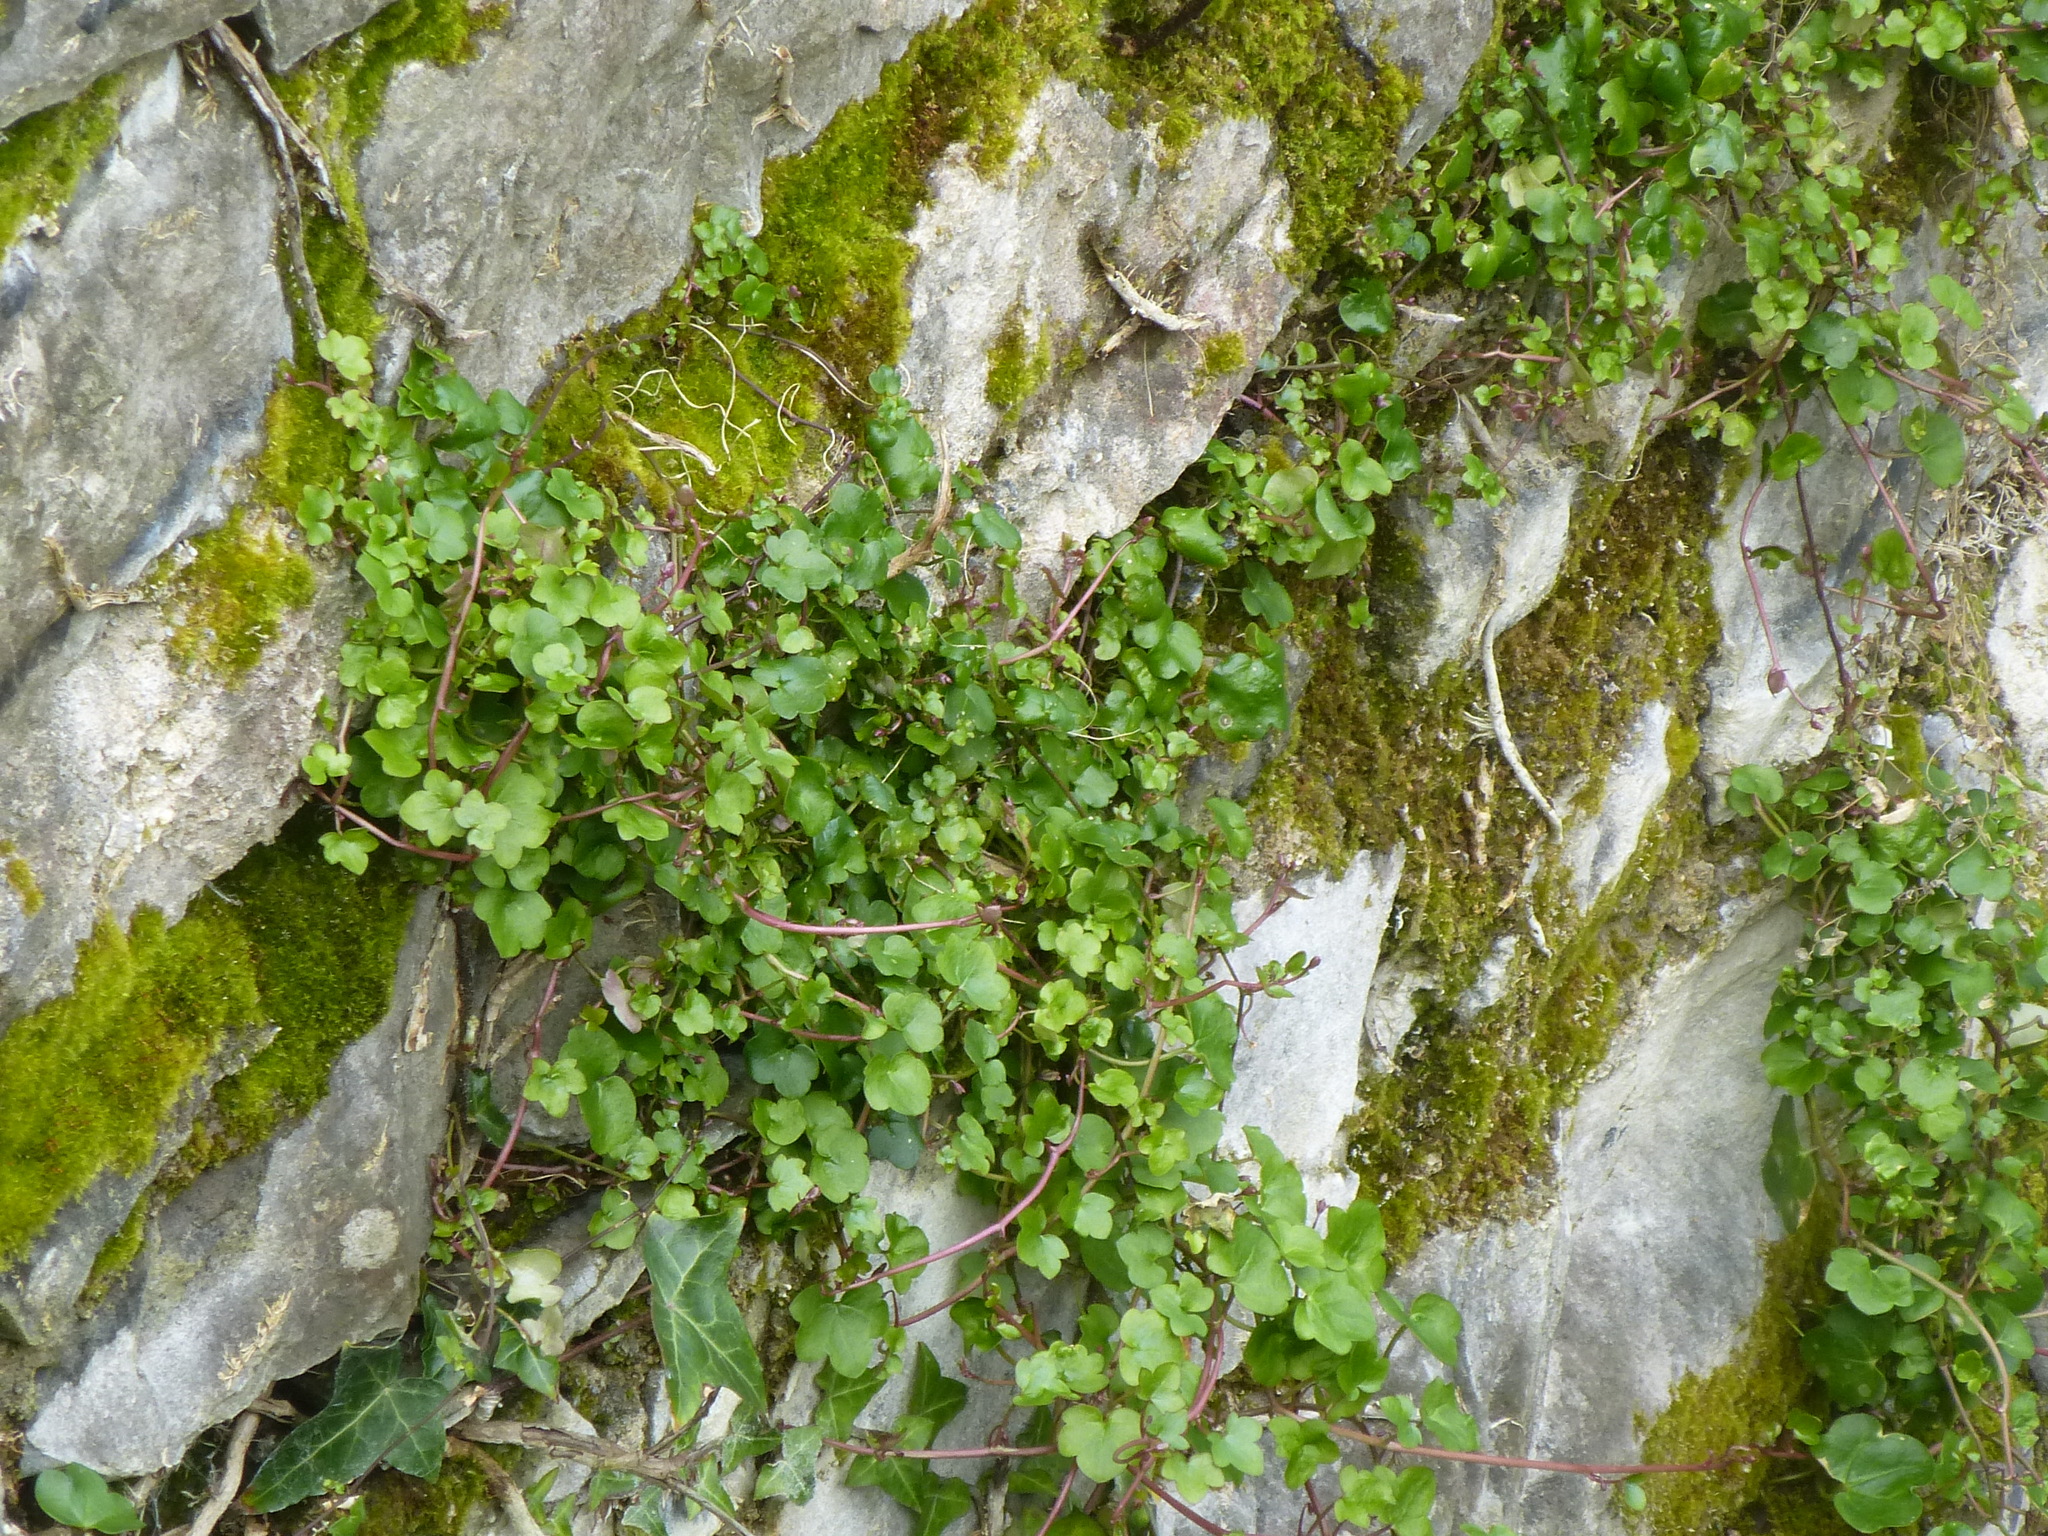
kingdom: Plantae
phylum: Tracheophyta
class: Magnoliopsida
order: Lamiales
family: Plantaginaceae
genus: Cymbalaria
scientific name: Cymbalaria muralis
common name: Ivy-leaved toadflax
